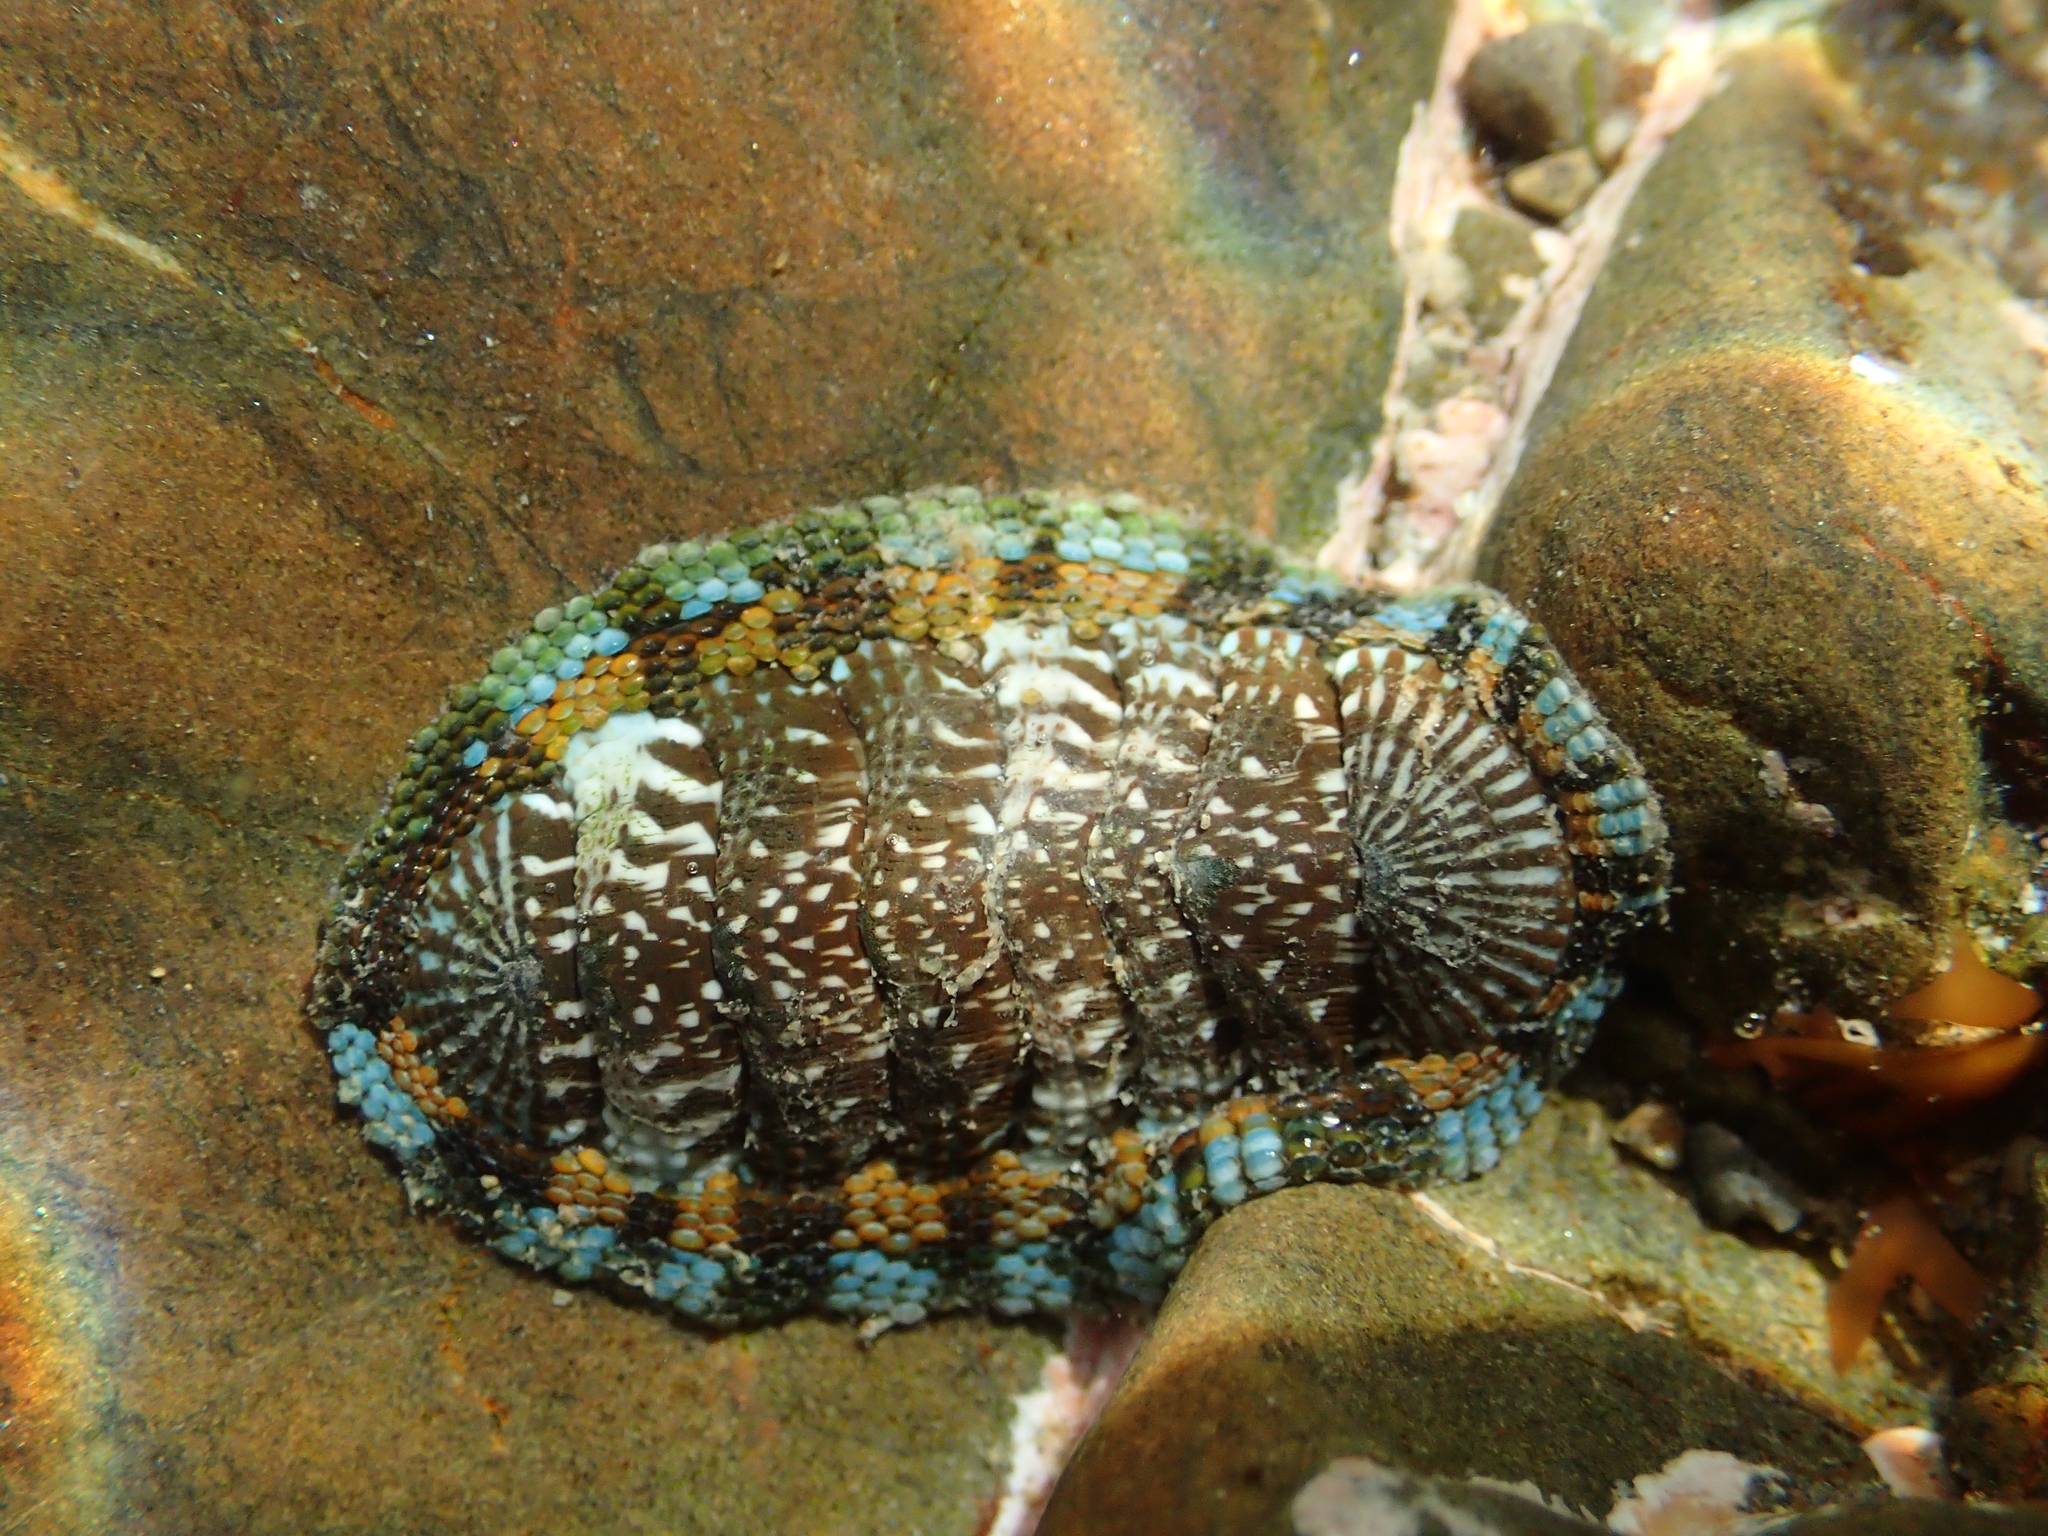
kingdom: Animalia
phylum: Mollusca
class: Polyplacophora
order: Chitonida
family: Chitonidae
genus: Sypharochiton
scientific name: Sypharochiton sinclairi
